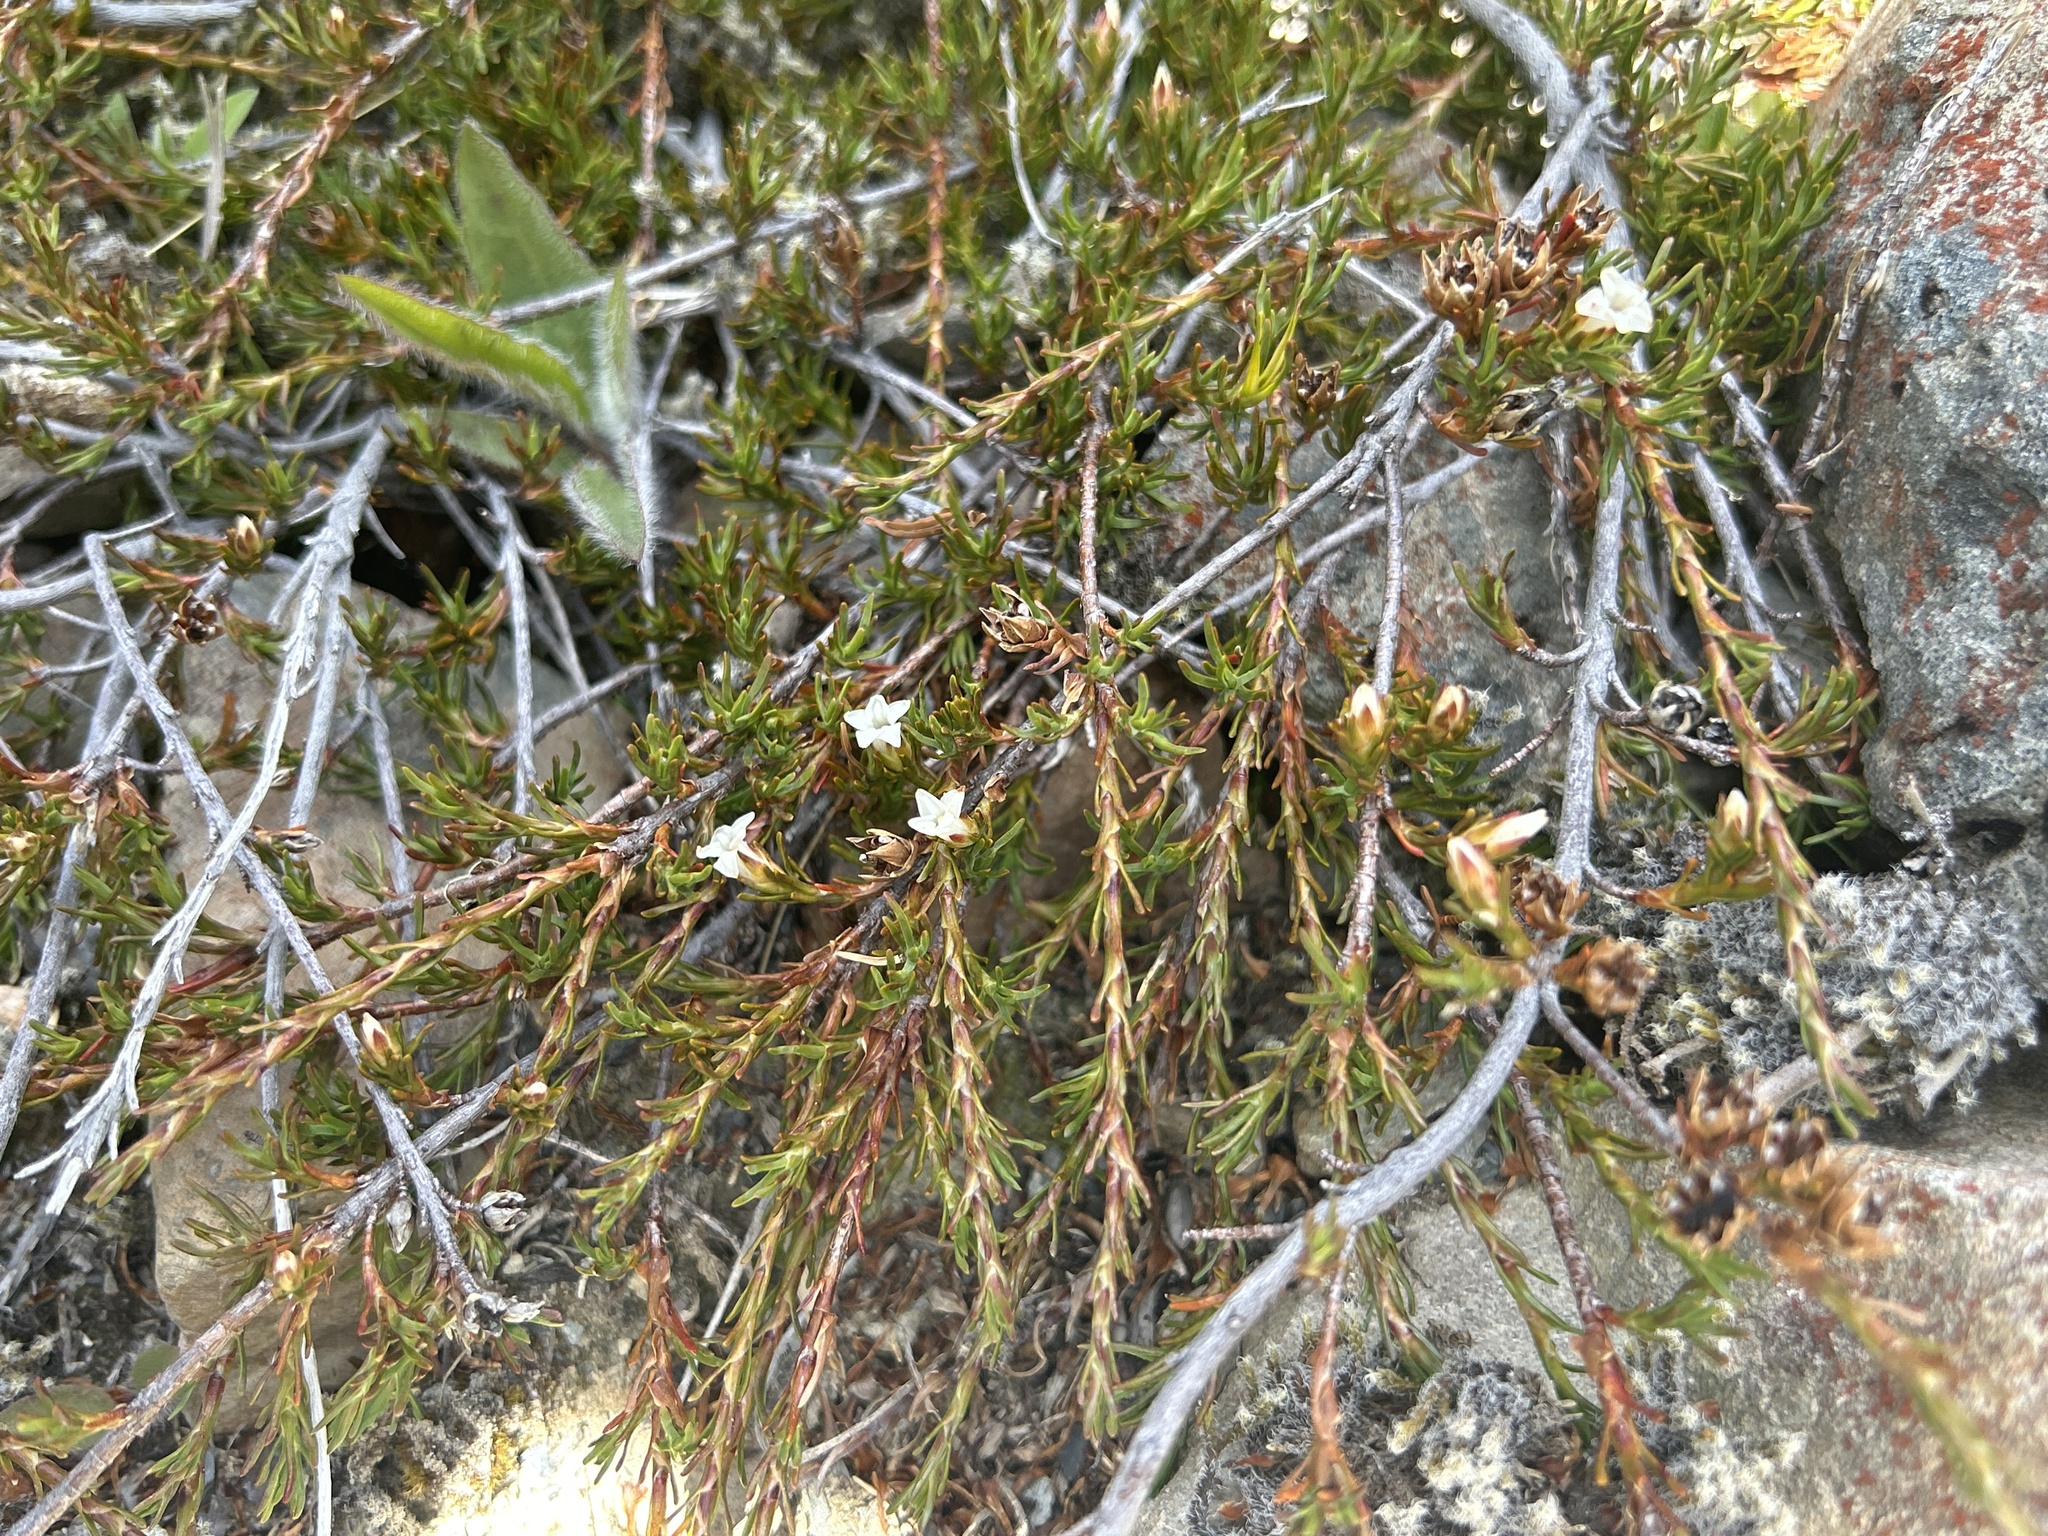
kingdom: Plantae
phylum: Tracheophyta
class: Magnoliopsida
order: Ericales
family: Ericaceae
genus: Dracophyllum
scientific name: Dracophyllum pronum
